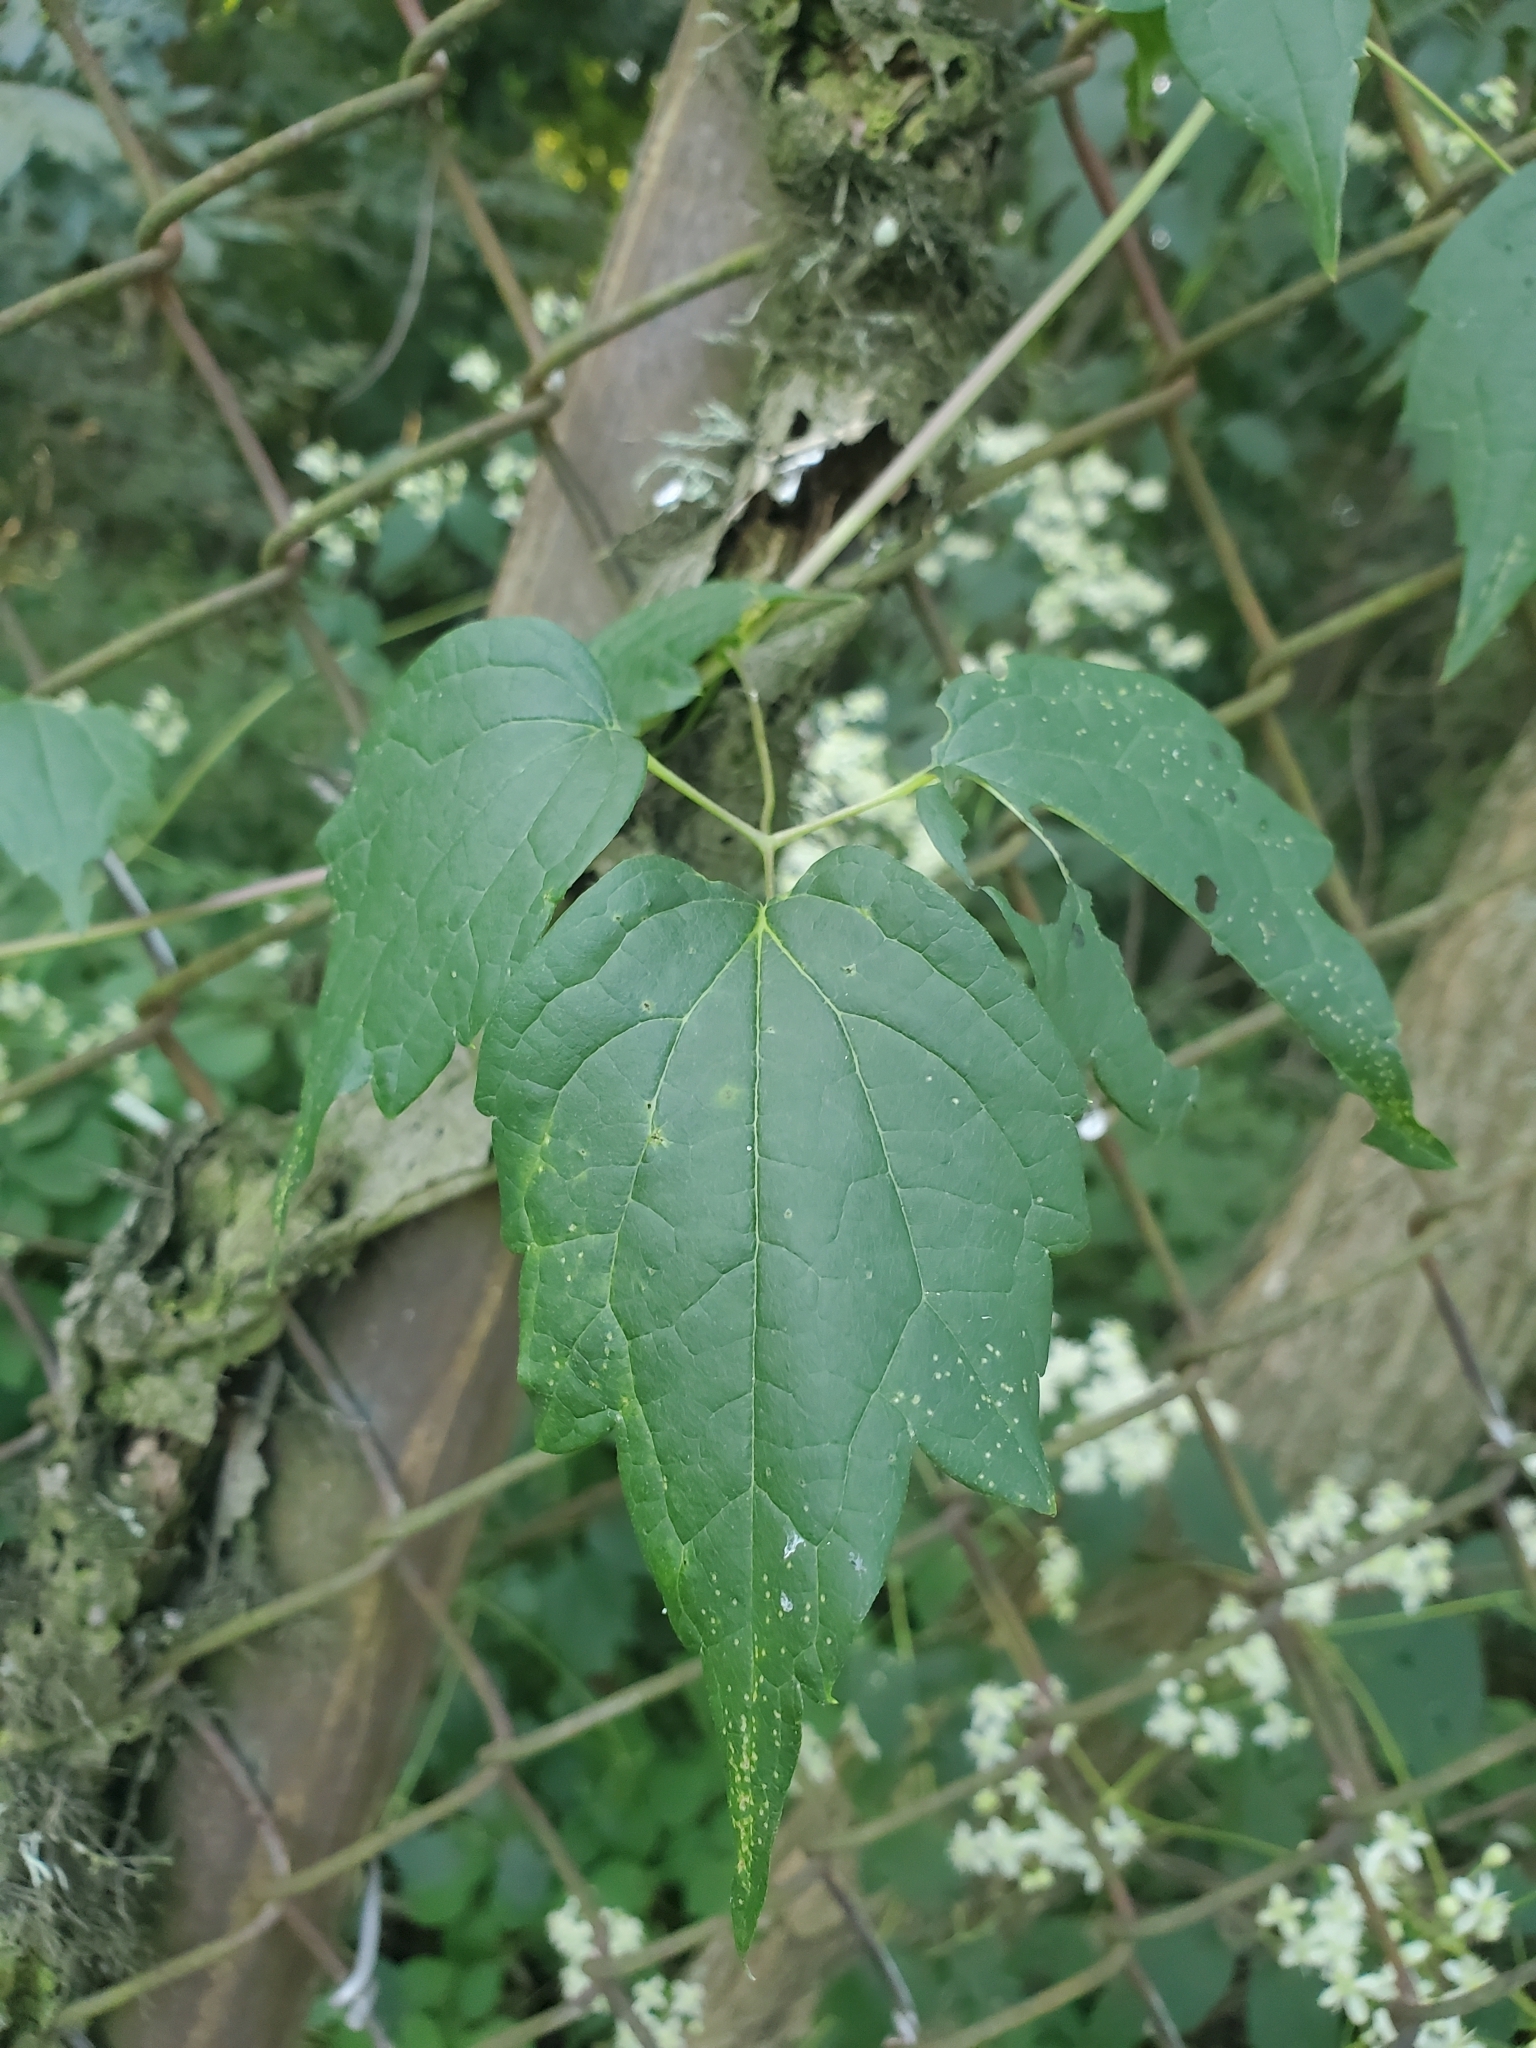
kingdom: Plantae
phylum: Tracheophyta
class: Magnoliopsida
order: Ranunculales
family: Ranunculaceae
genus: Clematis
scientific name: Clematis virginiana
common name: Virgin's-bower
